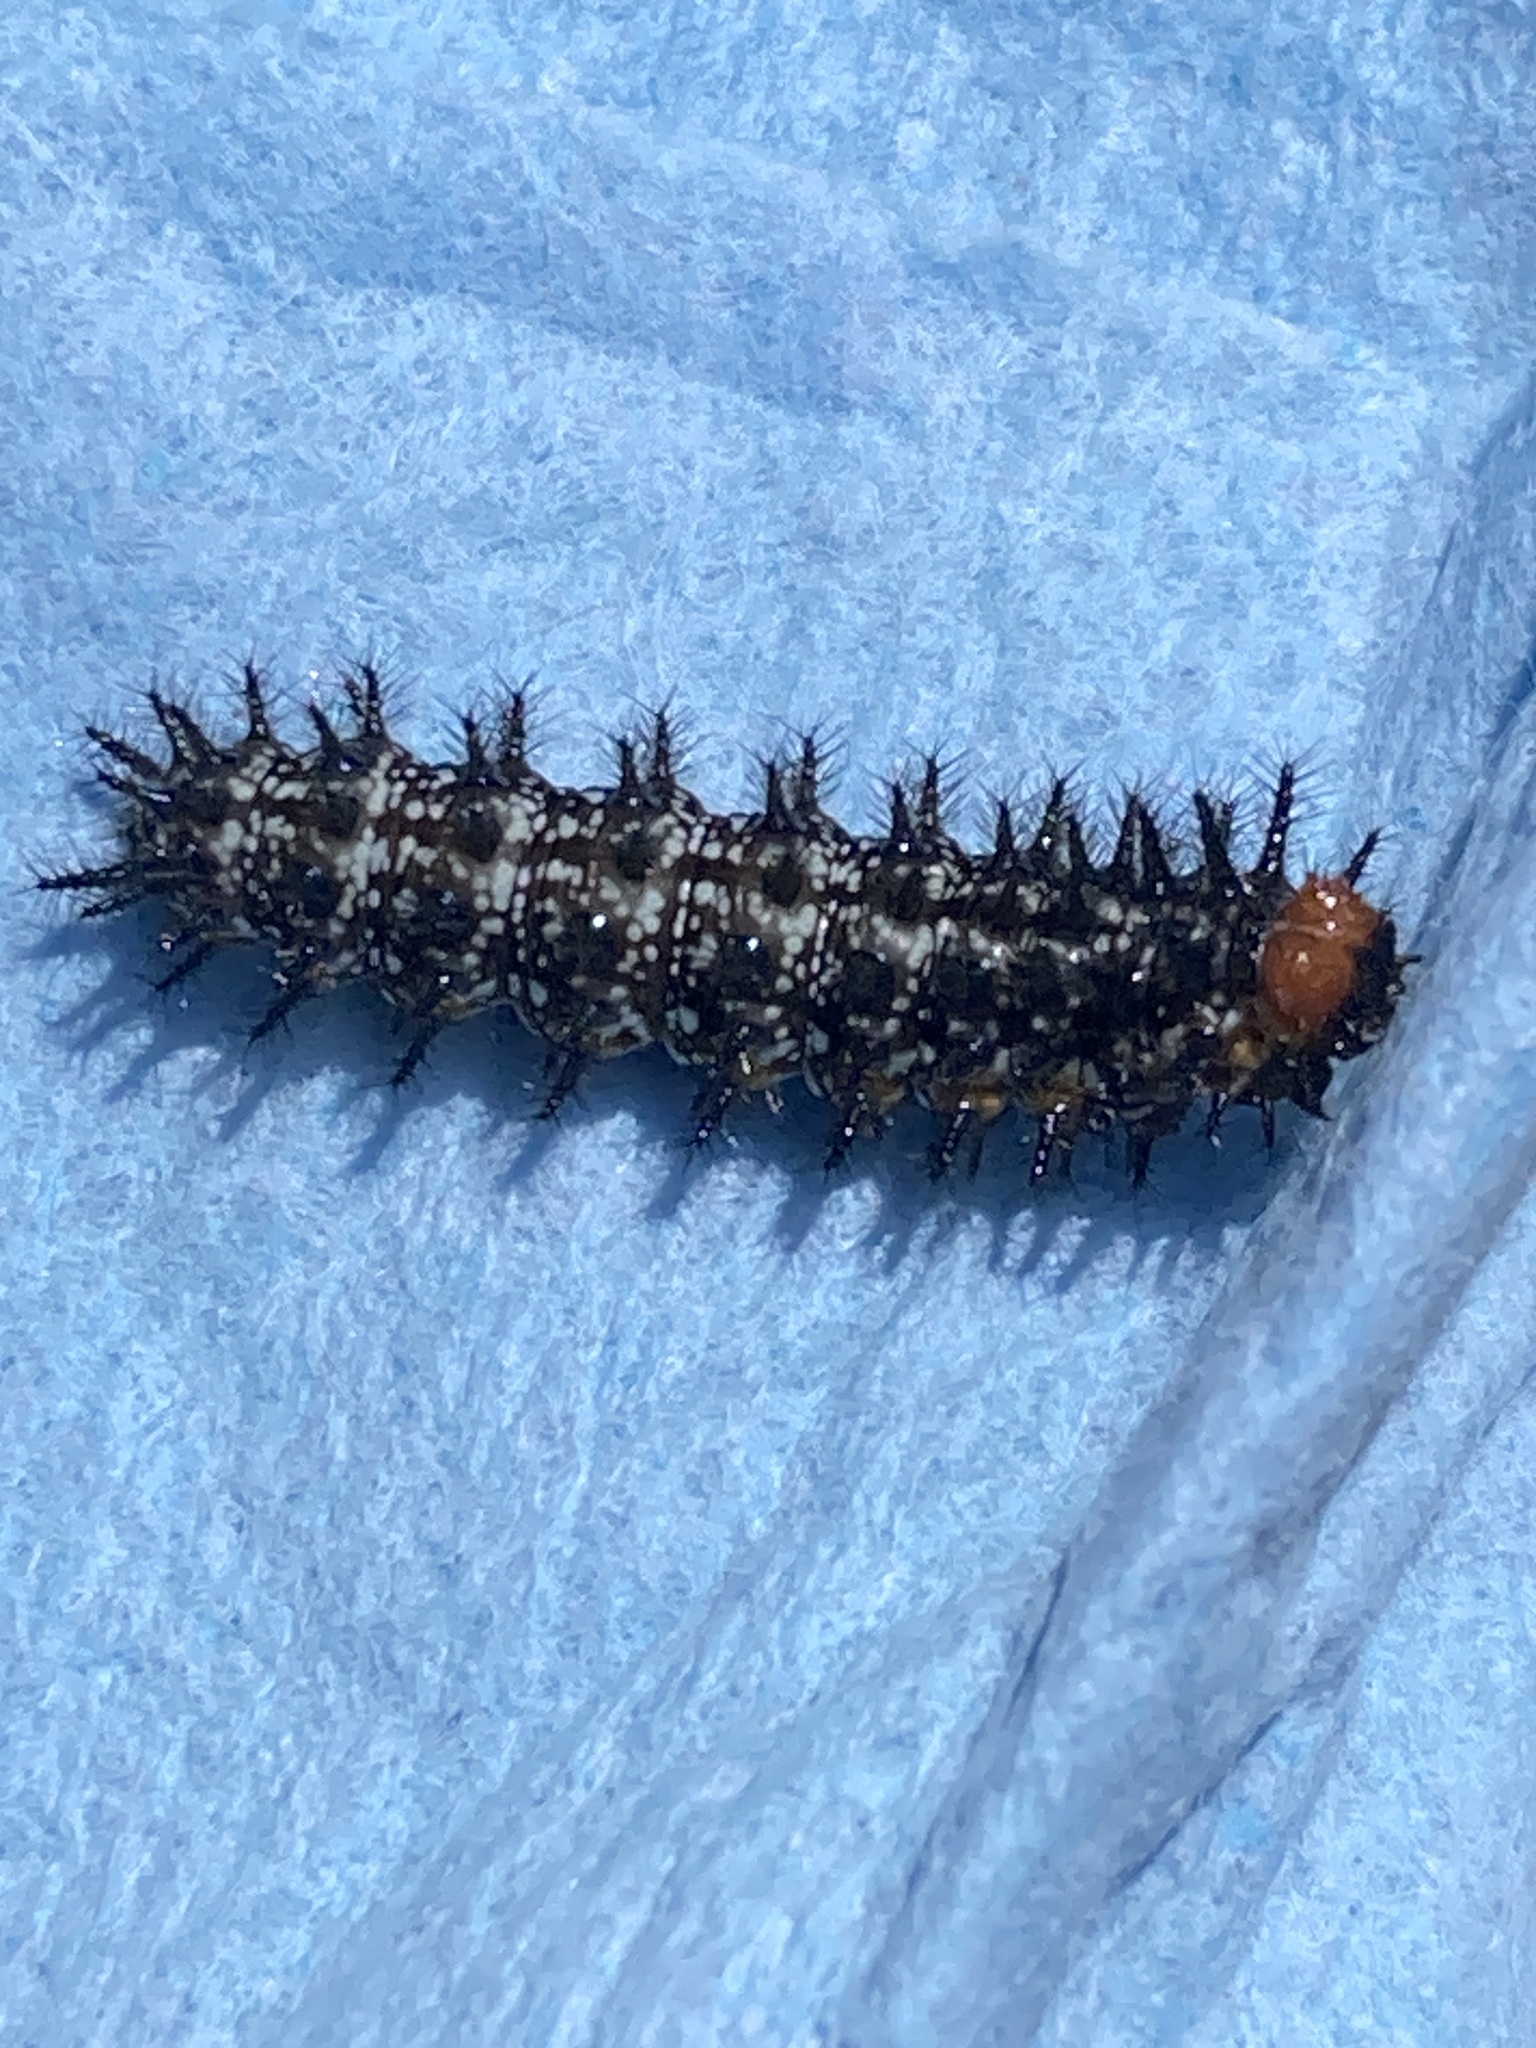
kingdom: Animalia
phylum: Arthropoda
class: Insecta
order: Lepidoptera
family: Nymphalidae
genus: Thessalia
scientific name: Thessalia theona
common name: Nymphalid moth
